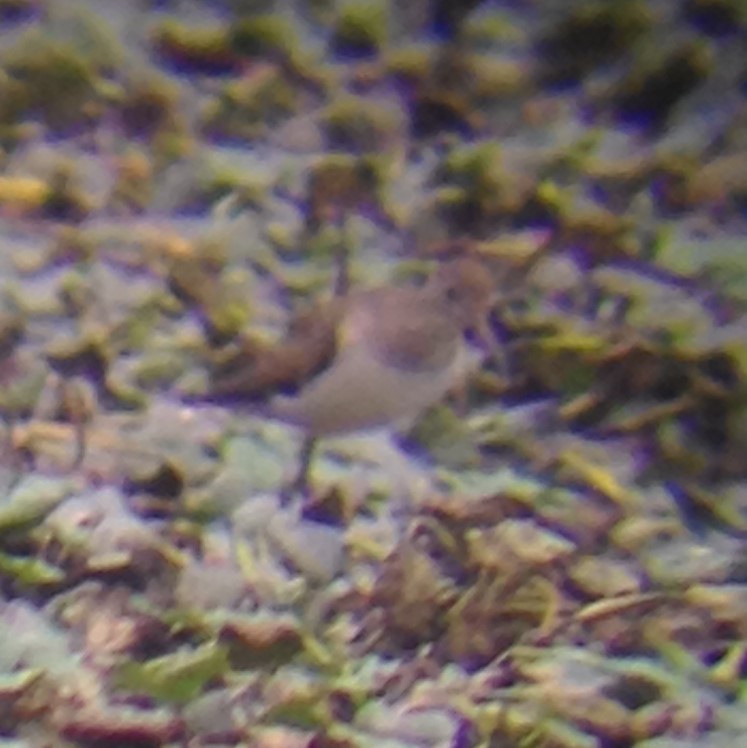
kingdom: Animalia
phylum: Chordata
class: Aves
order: Charadriiformes
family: Scolopacidae
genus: Tringa
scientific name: Tringa solitaria
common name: Solitary sandpiper
